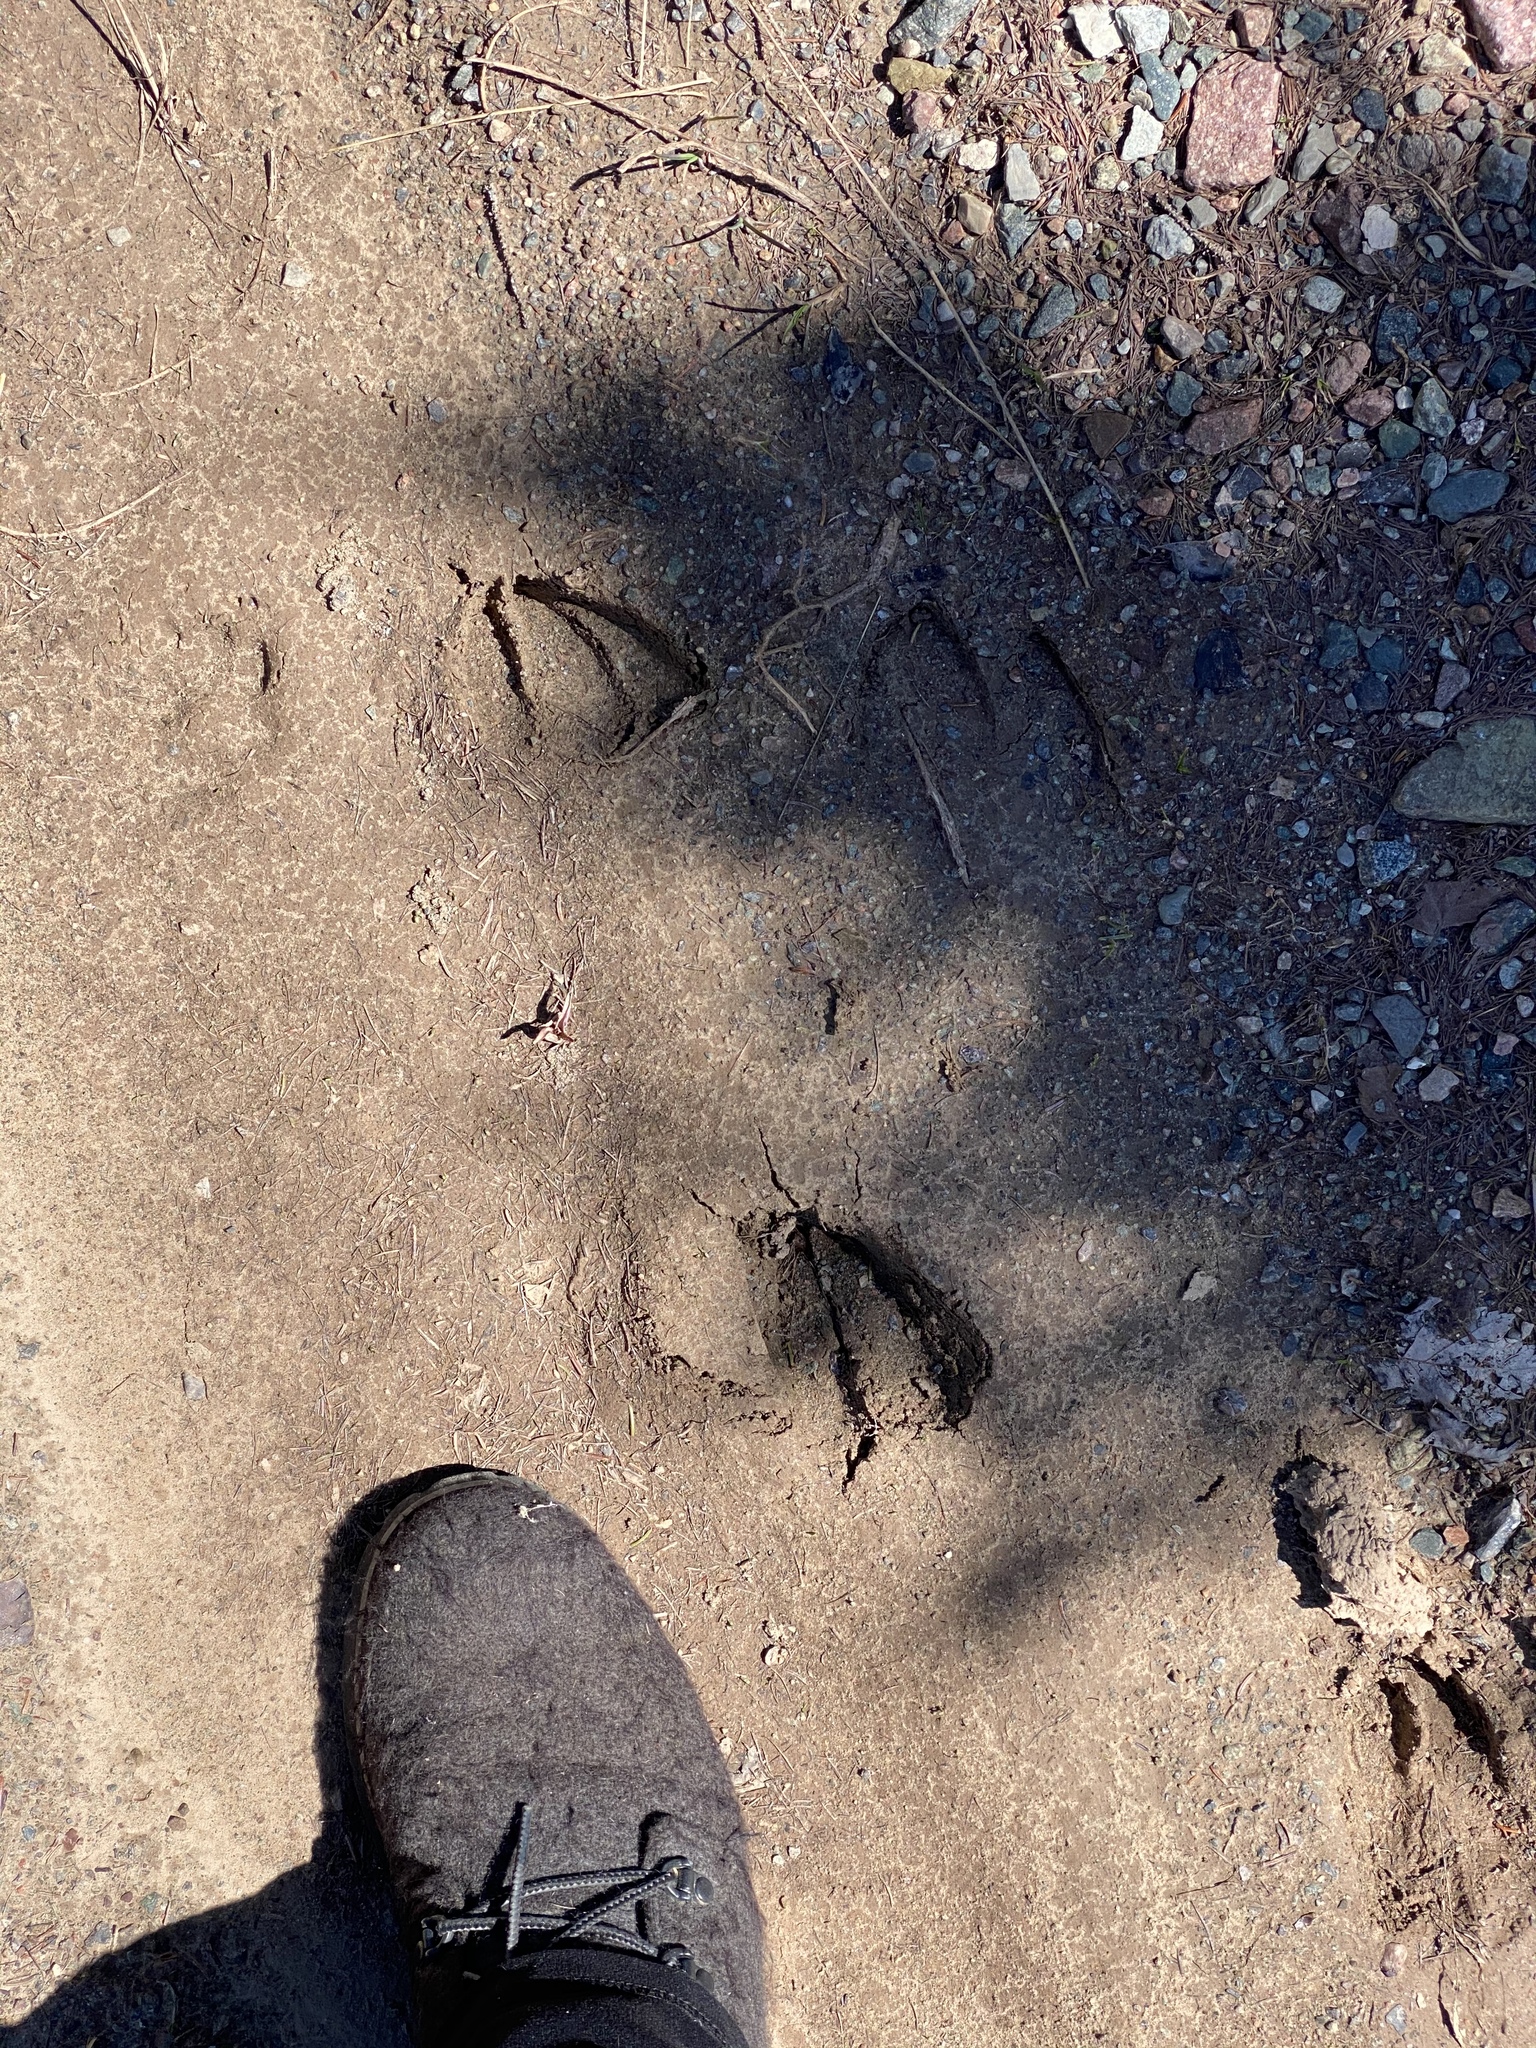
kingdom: Animalia
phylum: Chordata
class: Mammalia
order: Artiodactyla
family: Cervidae
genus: Odocoileus
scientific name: Odocoileus virginianus
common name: White-tailed deer
